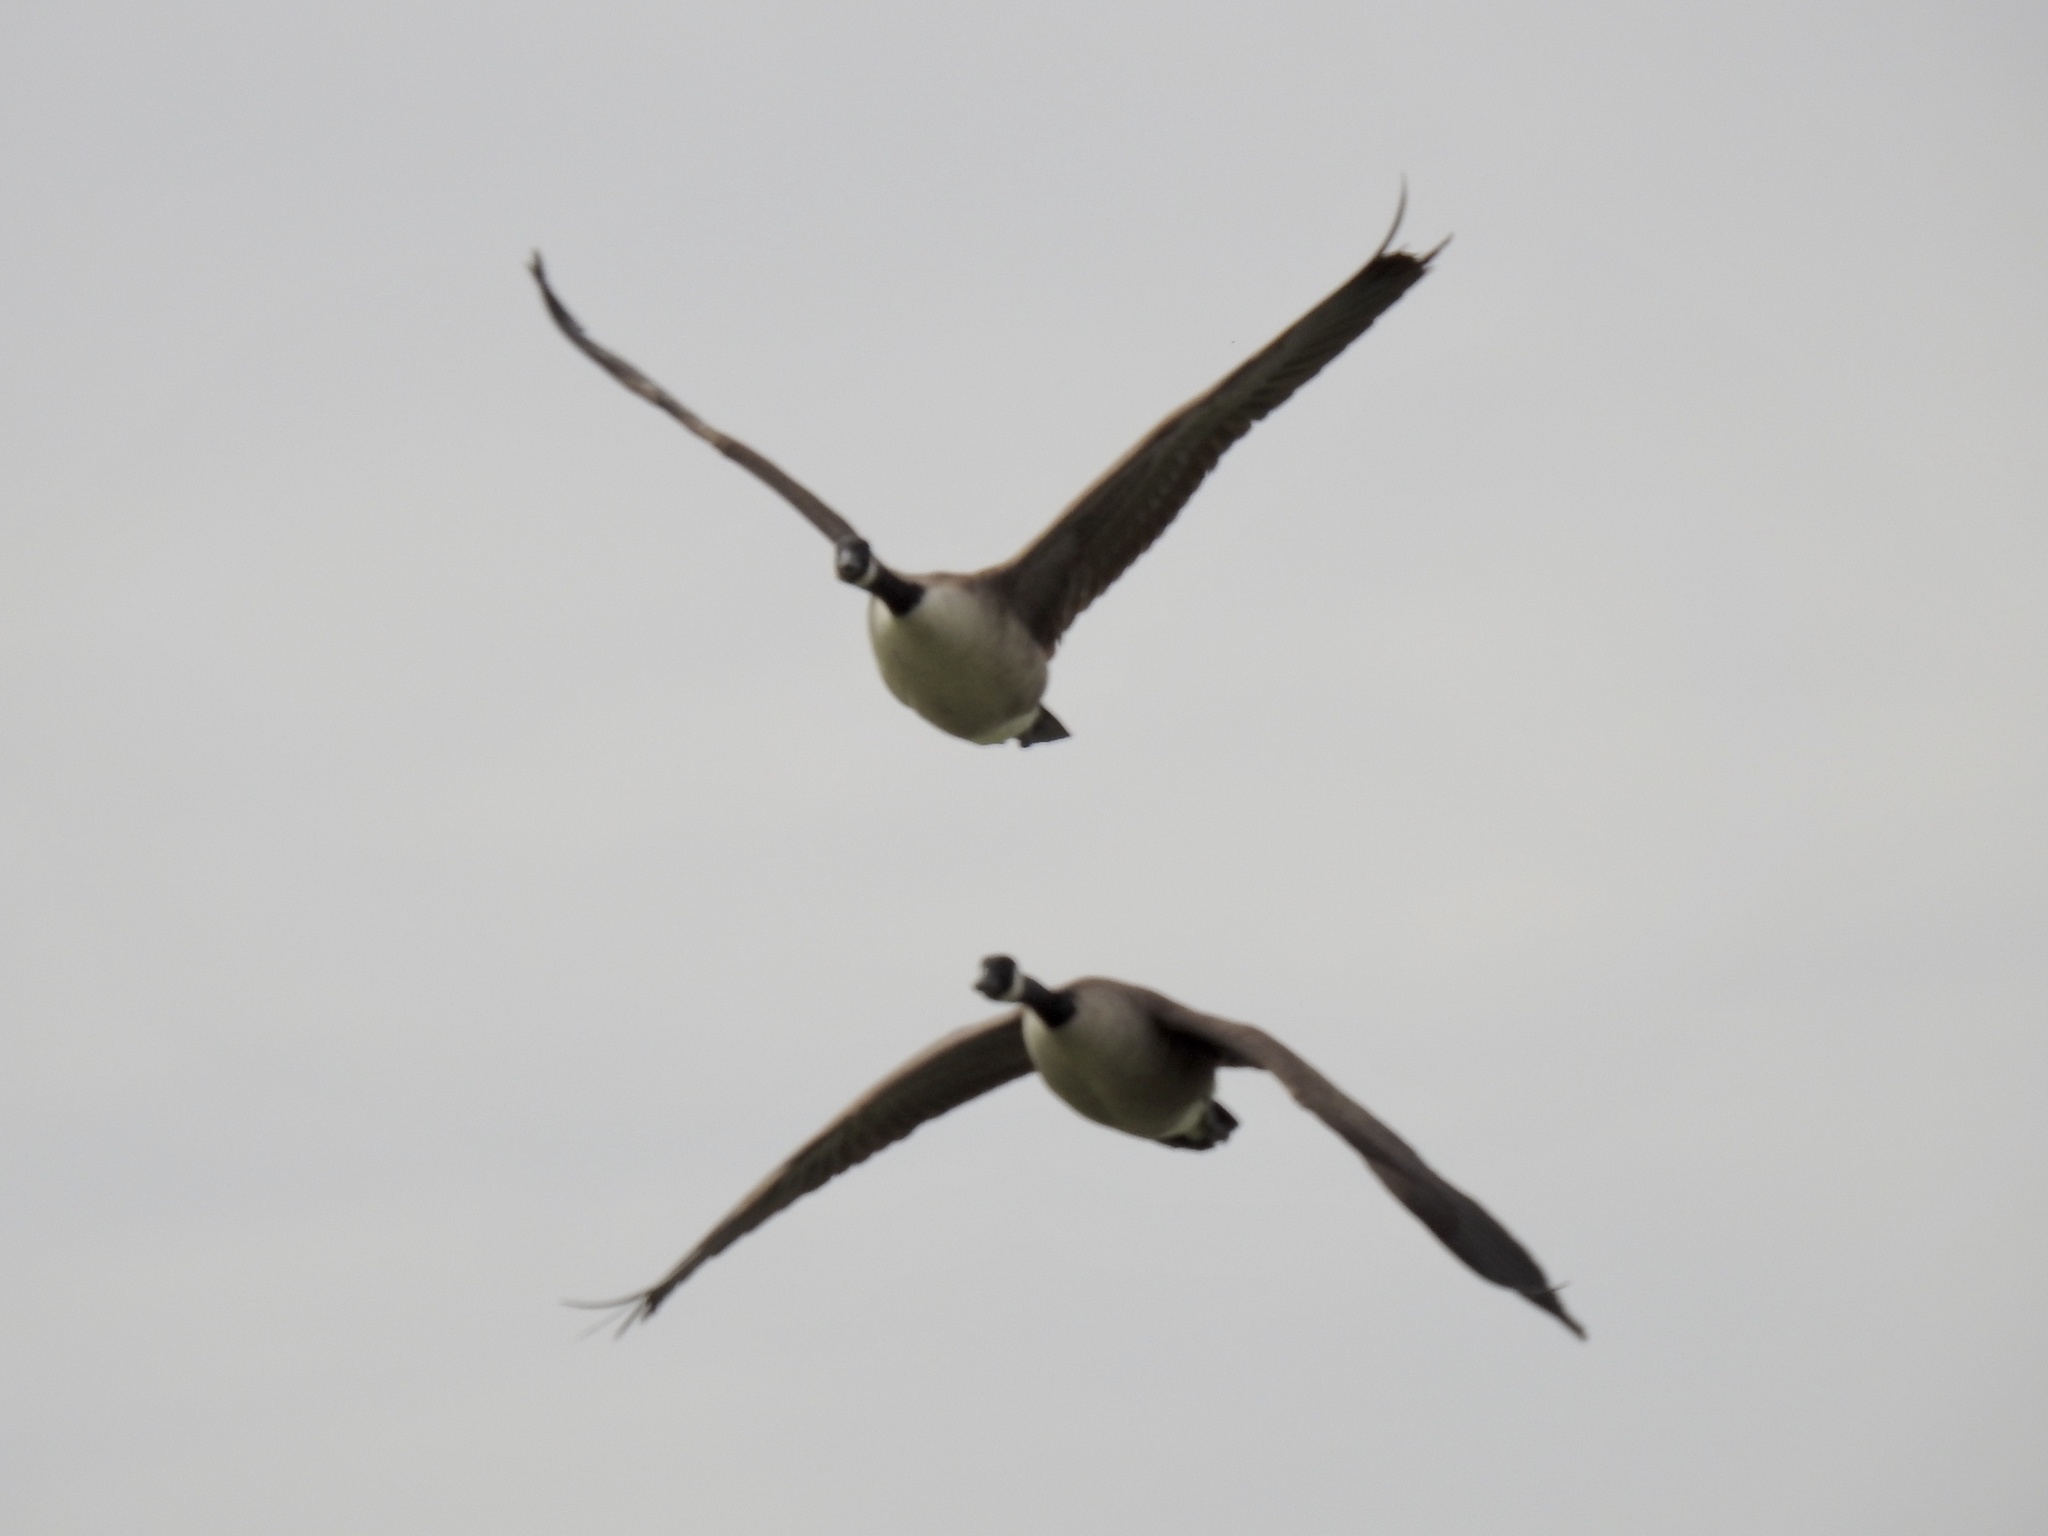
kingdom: Animalia
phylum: Chordata
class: Aves
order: Anseriformes
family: Anatidae
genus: Branta
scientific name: Branta canadensis
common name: Canada goose
